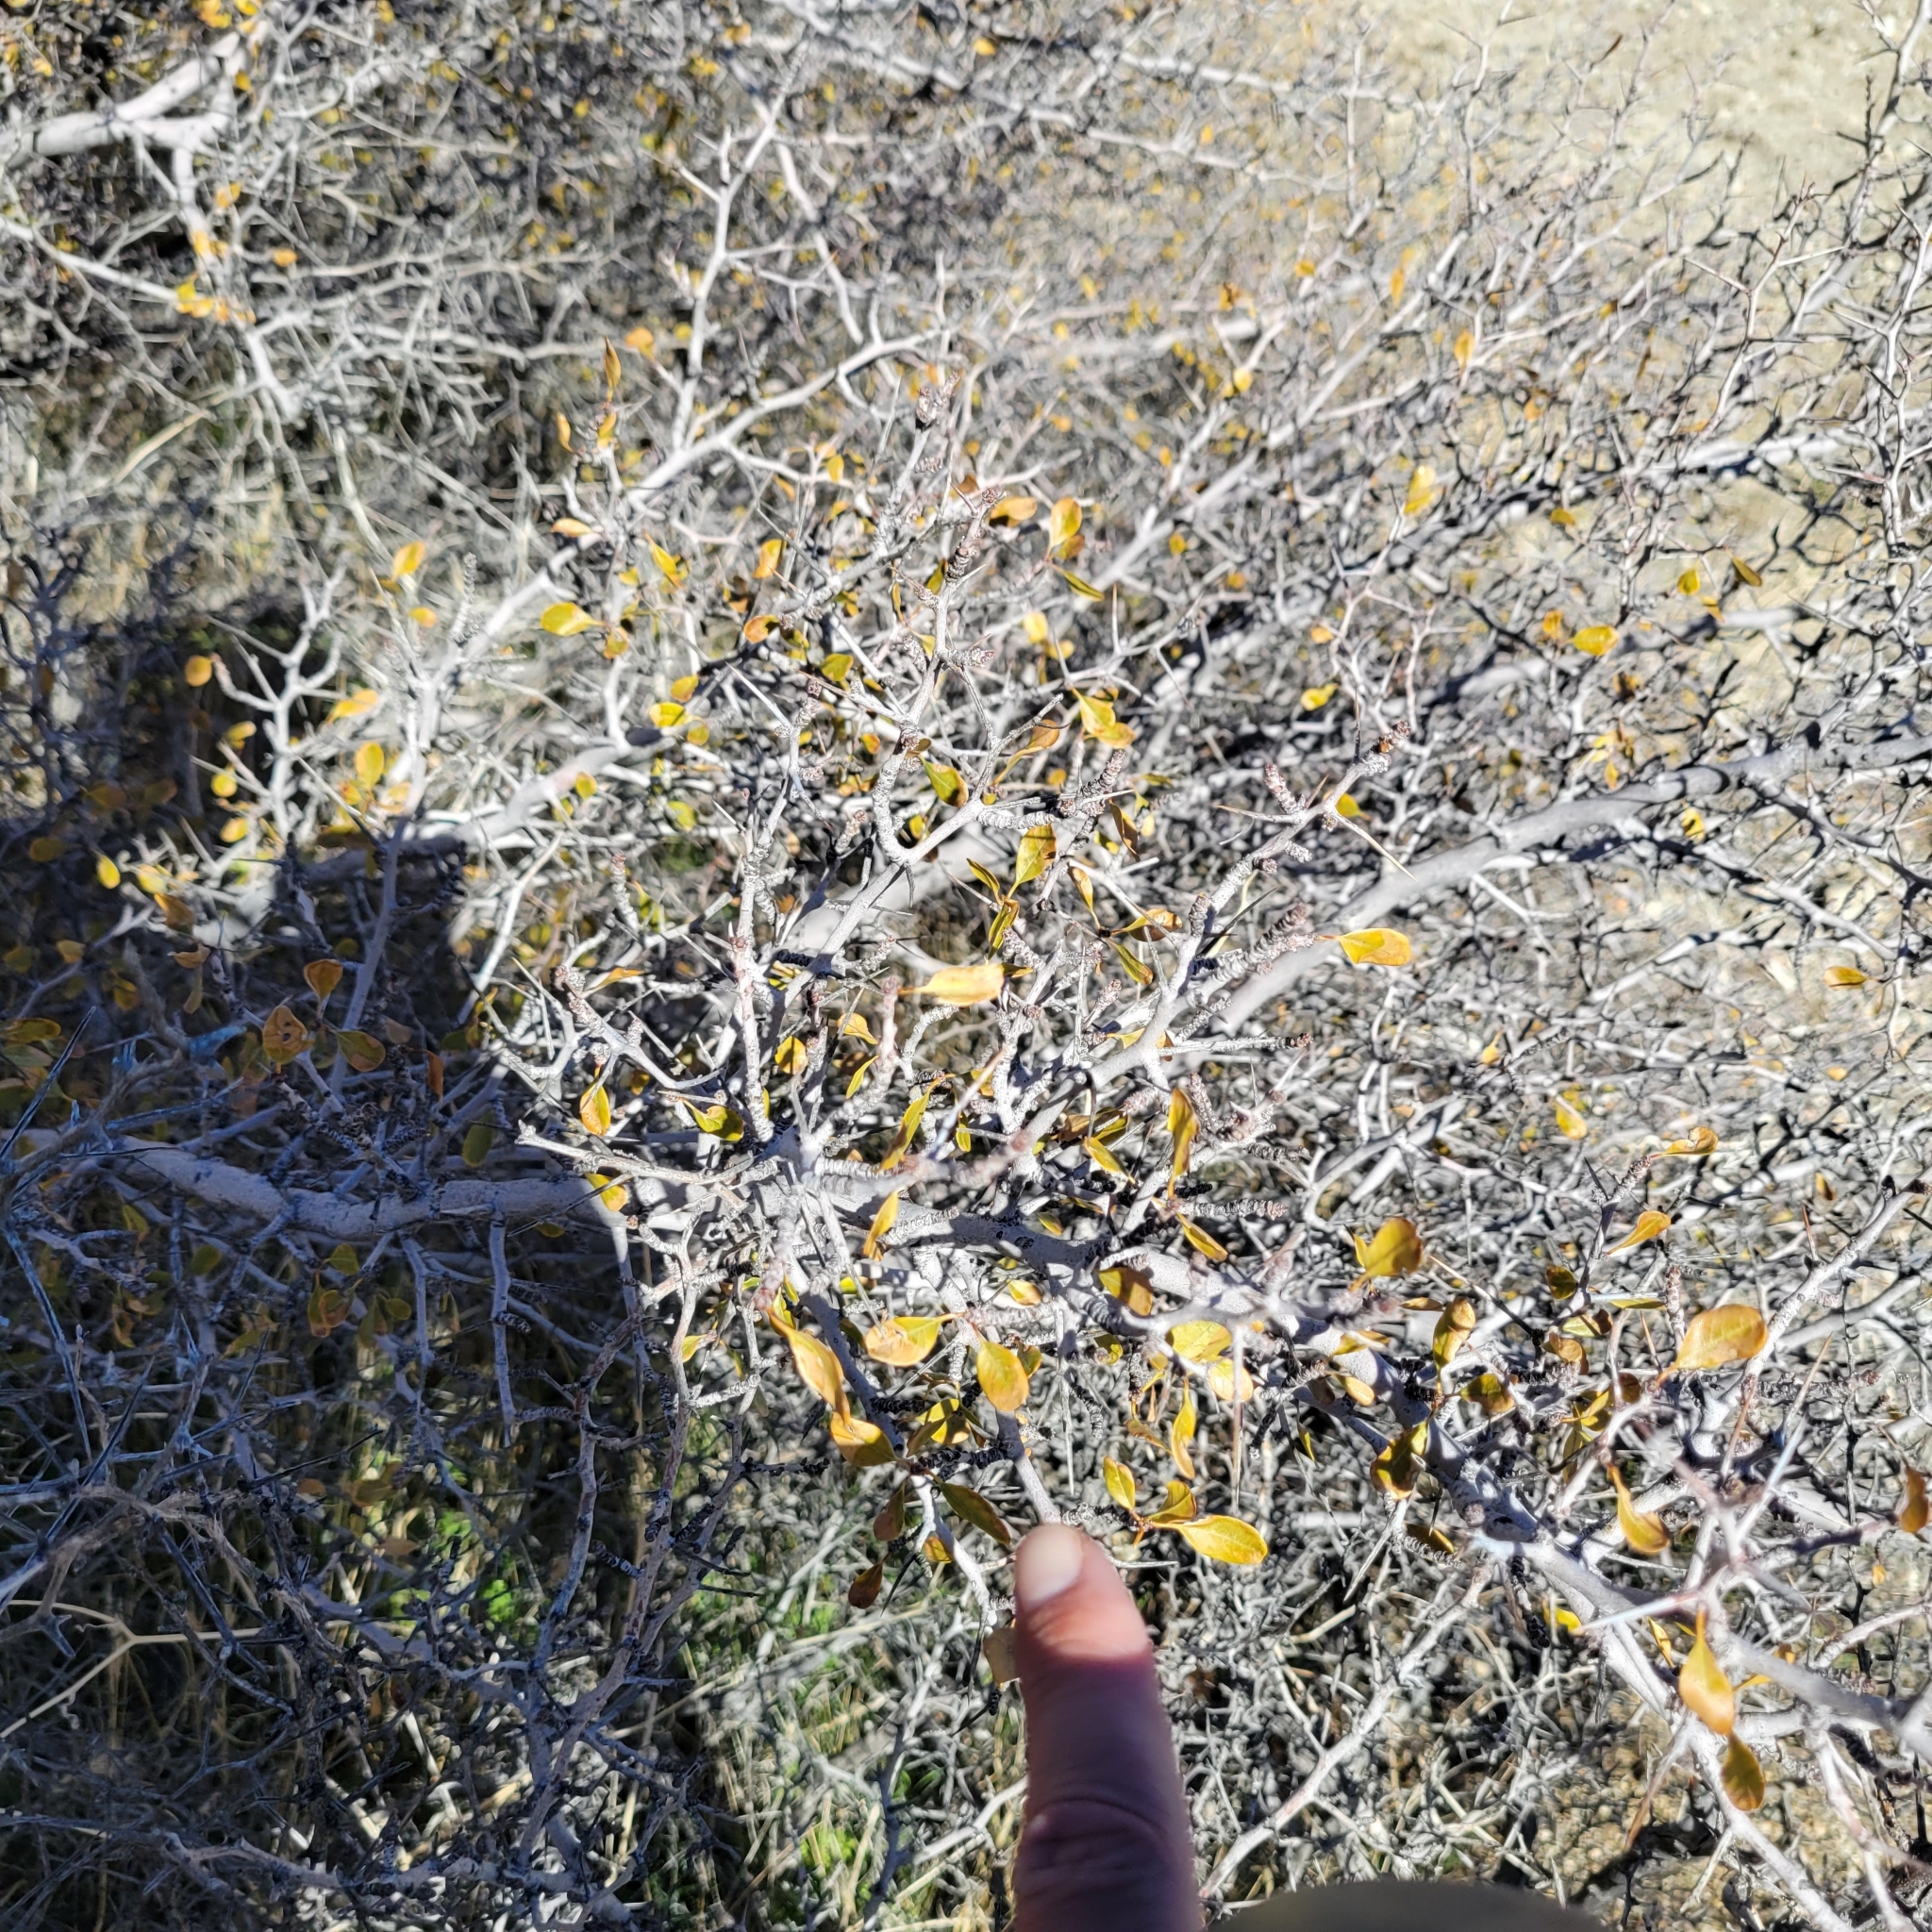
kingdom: Plantae
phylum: Tracheophyta
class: Magnoliopsida
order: Rosales
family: Rhamnaceae
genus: Pseudoziziphus
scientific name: Pseudoziziphus parryi
